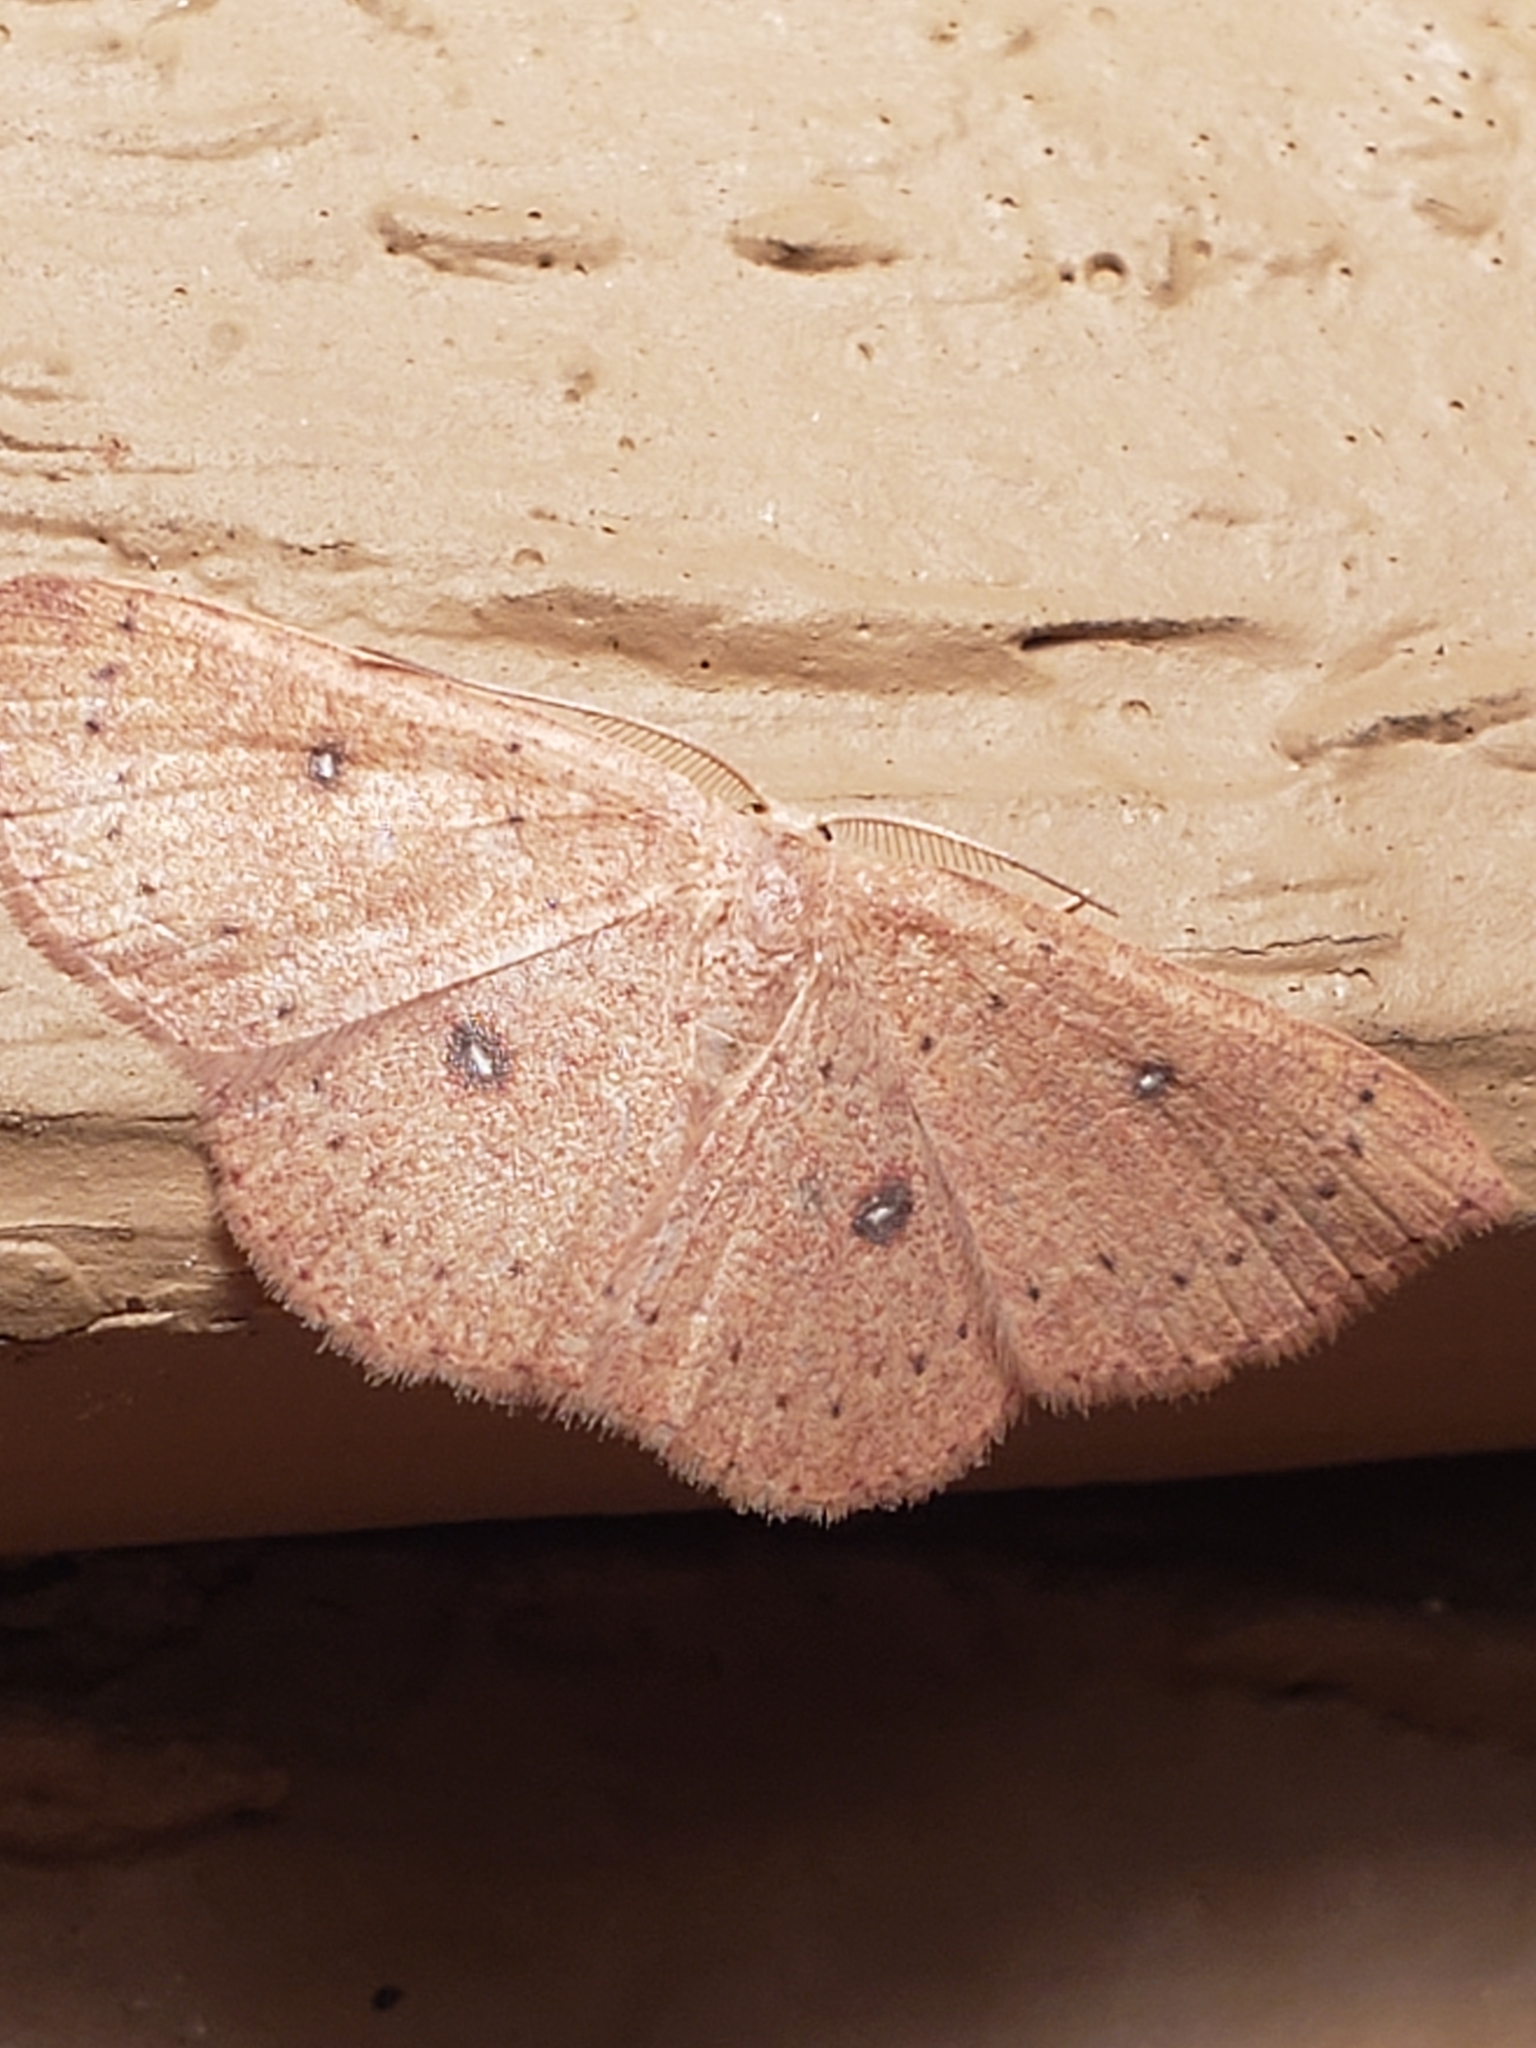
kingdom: Animalia
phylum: Arthropoda
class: Insecta
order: Lepidoptera
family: Geometridae
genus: Cyclophora
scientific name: Cyclophora packardi
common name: Packard's wave
